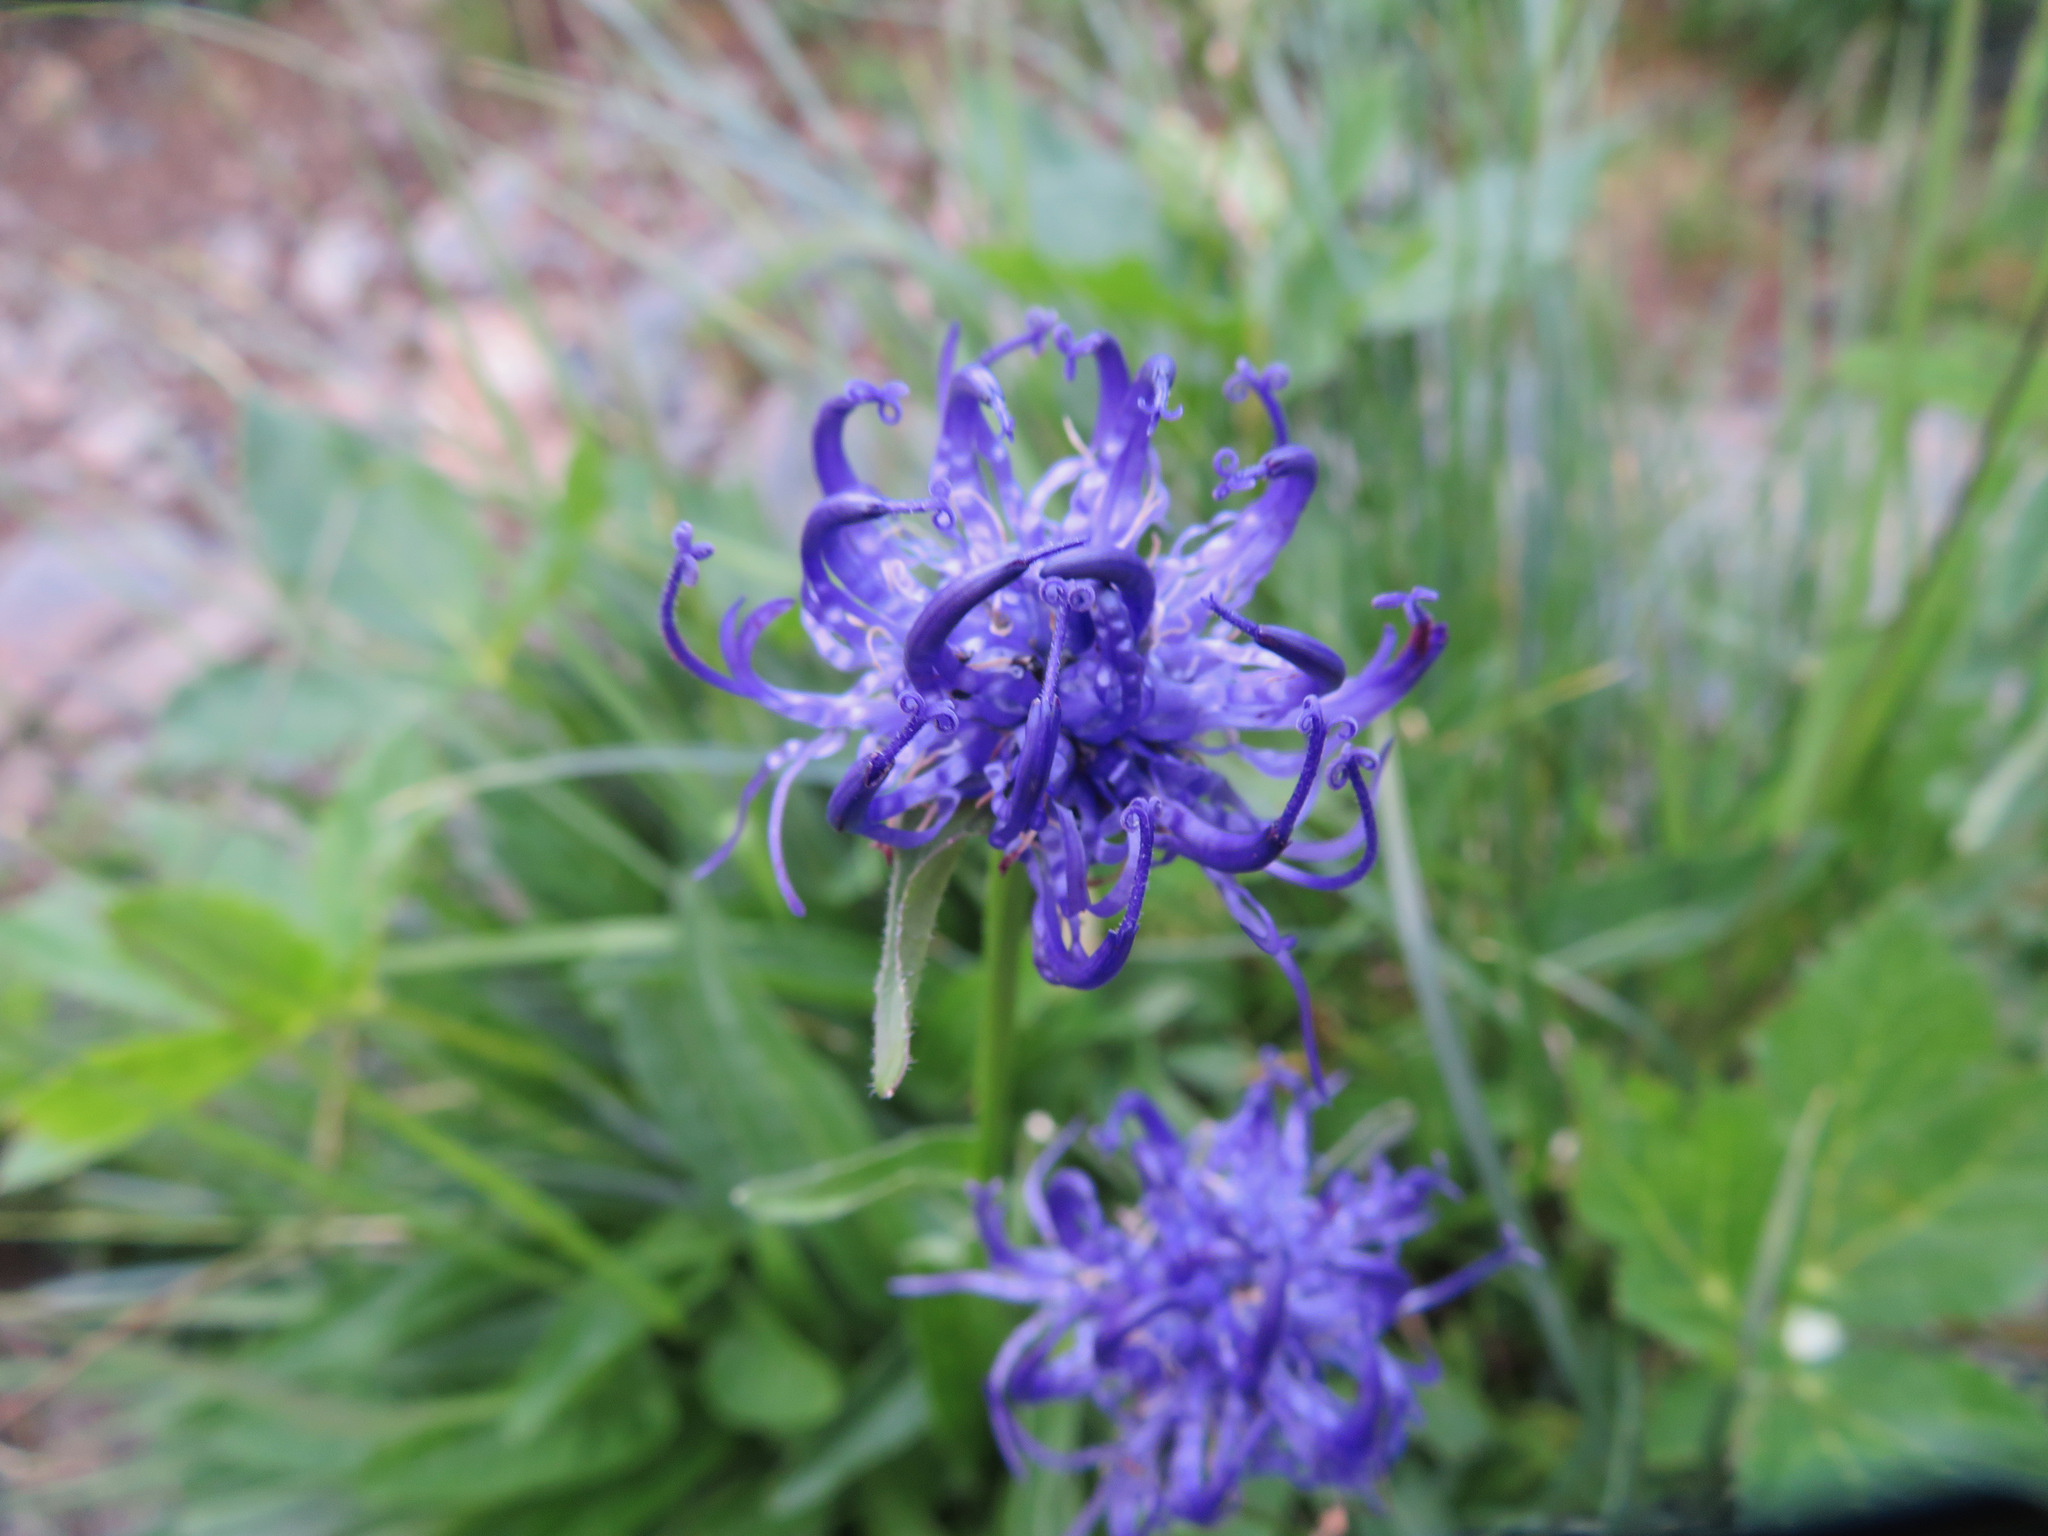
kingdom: Plantae
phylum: Tracheophyta
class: Magnoliopsida
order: Asterales
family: Campanulaceae
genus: Phyteuma
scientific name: Phyteuma orbiculare
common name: Round-headed rampion
